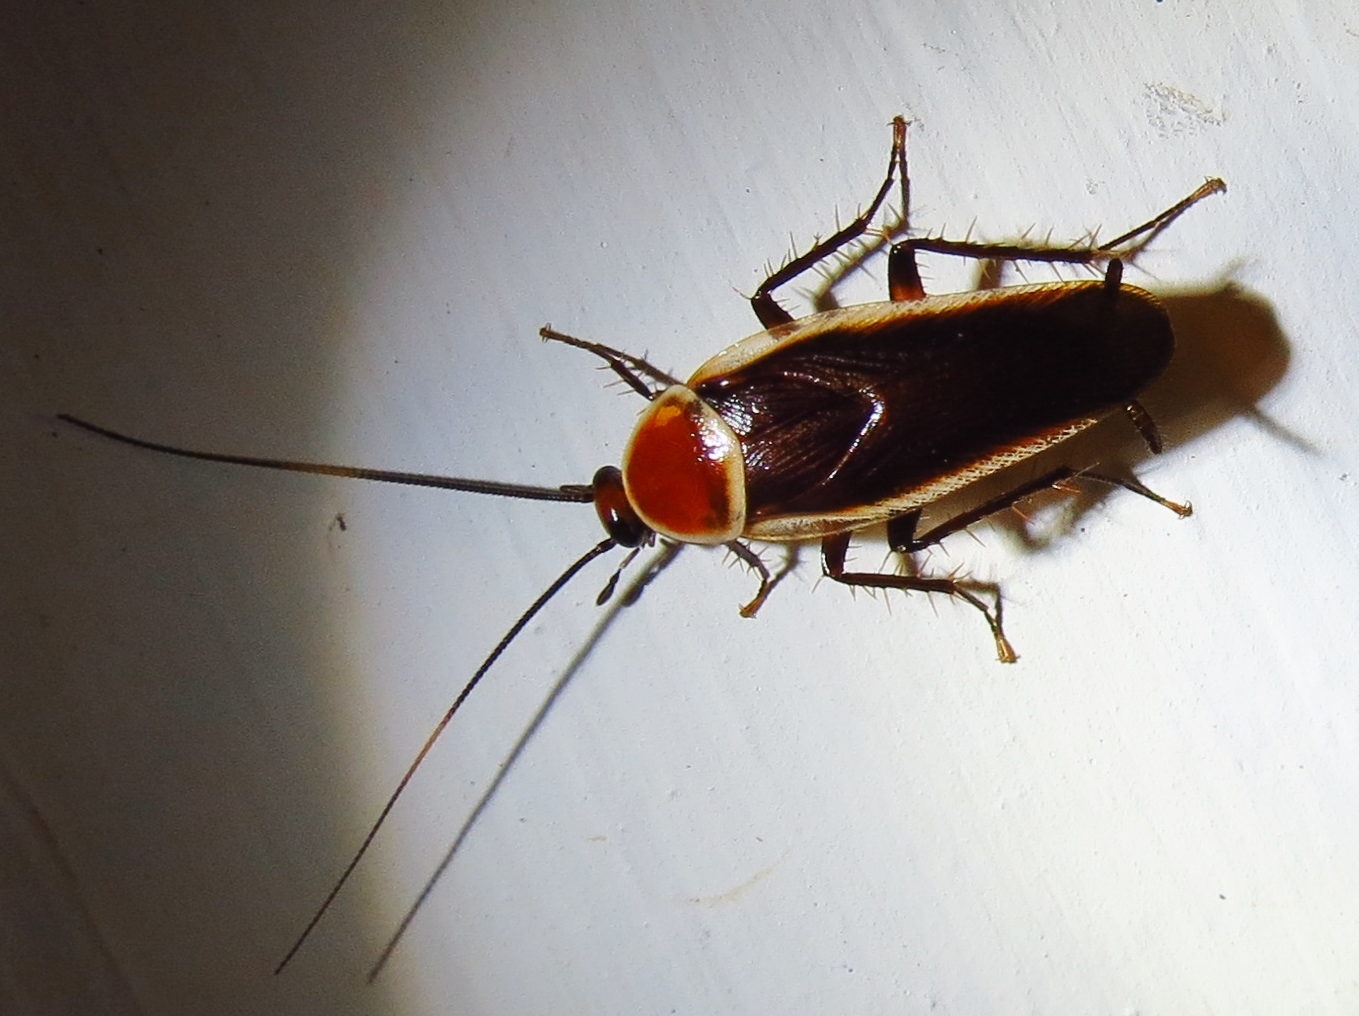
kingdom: Animalia
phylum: Arthropoda
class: Insecta
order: Blattodea
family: Ectobiidae
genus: Pseudomops
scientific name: Pseudomops septentrionalis
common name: Pale-bordered field cockroach
